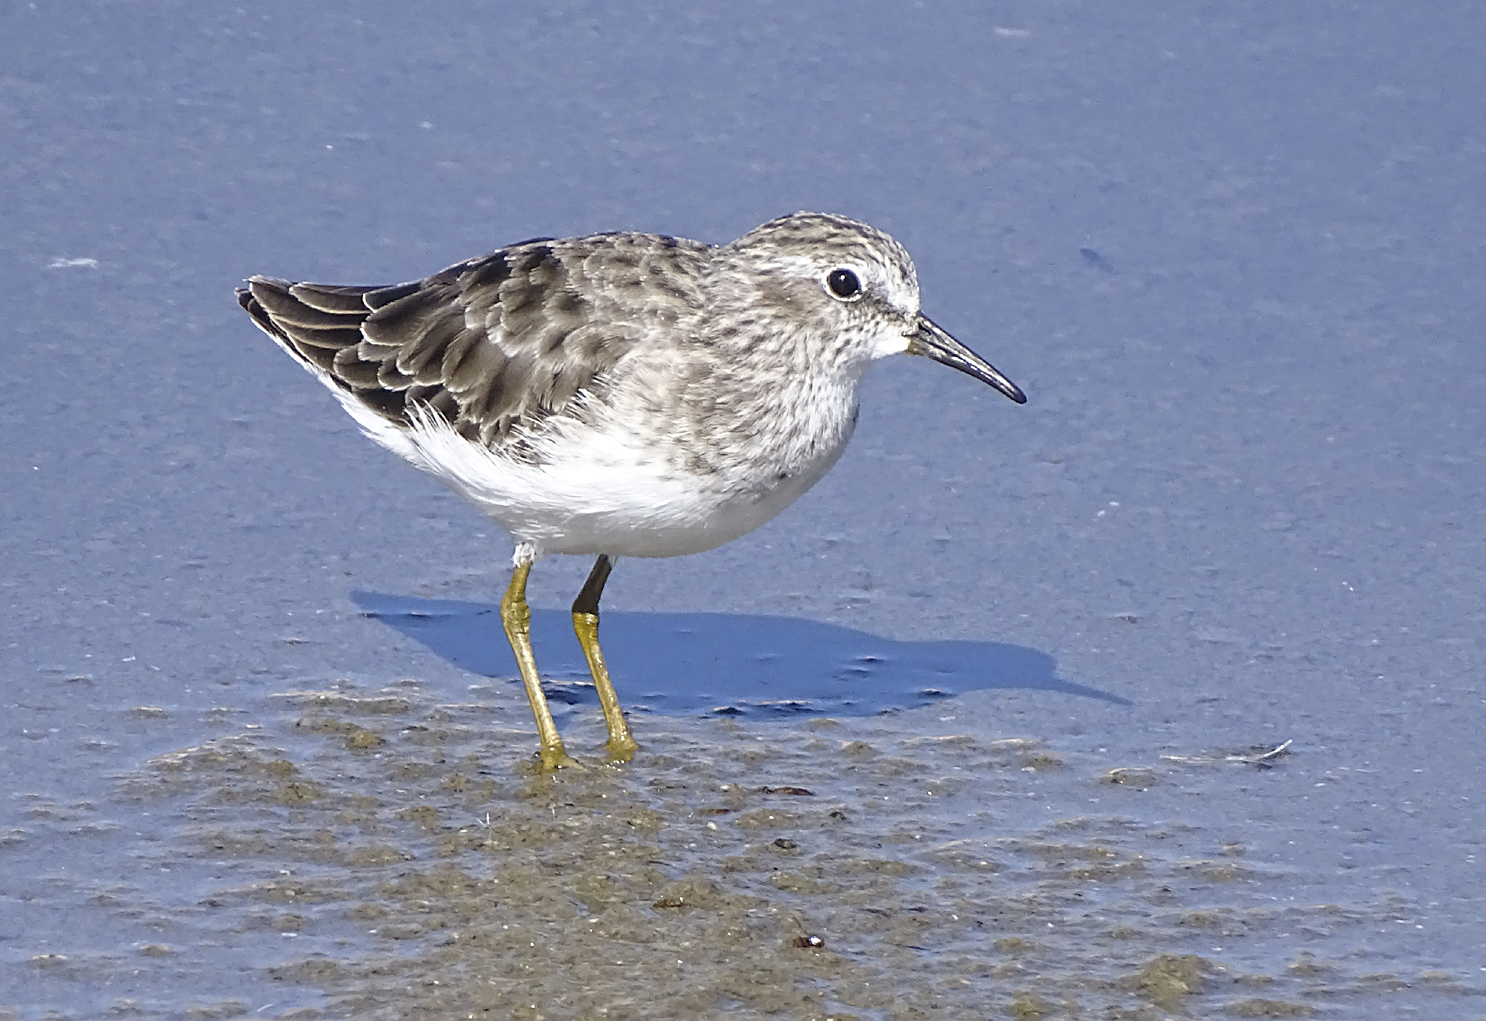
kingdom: Animalia
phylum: Chordata
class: Aves
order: Charadriiformes
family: Scolopacidae
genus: Calidris
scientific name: Calidris minutilla
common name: Least sandpiper
